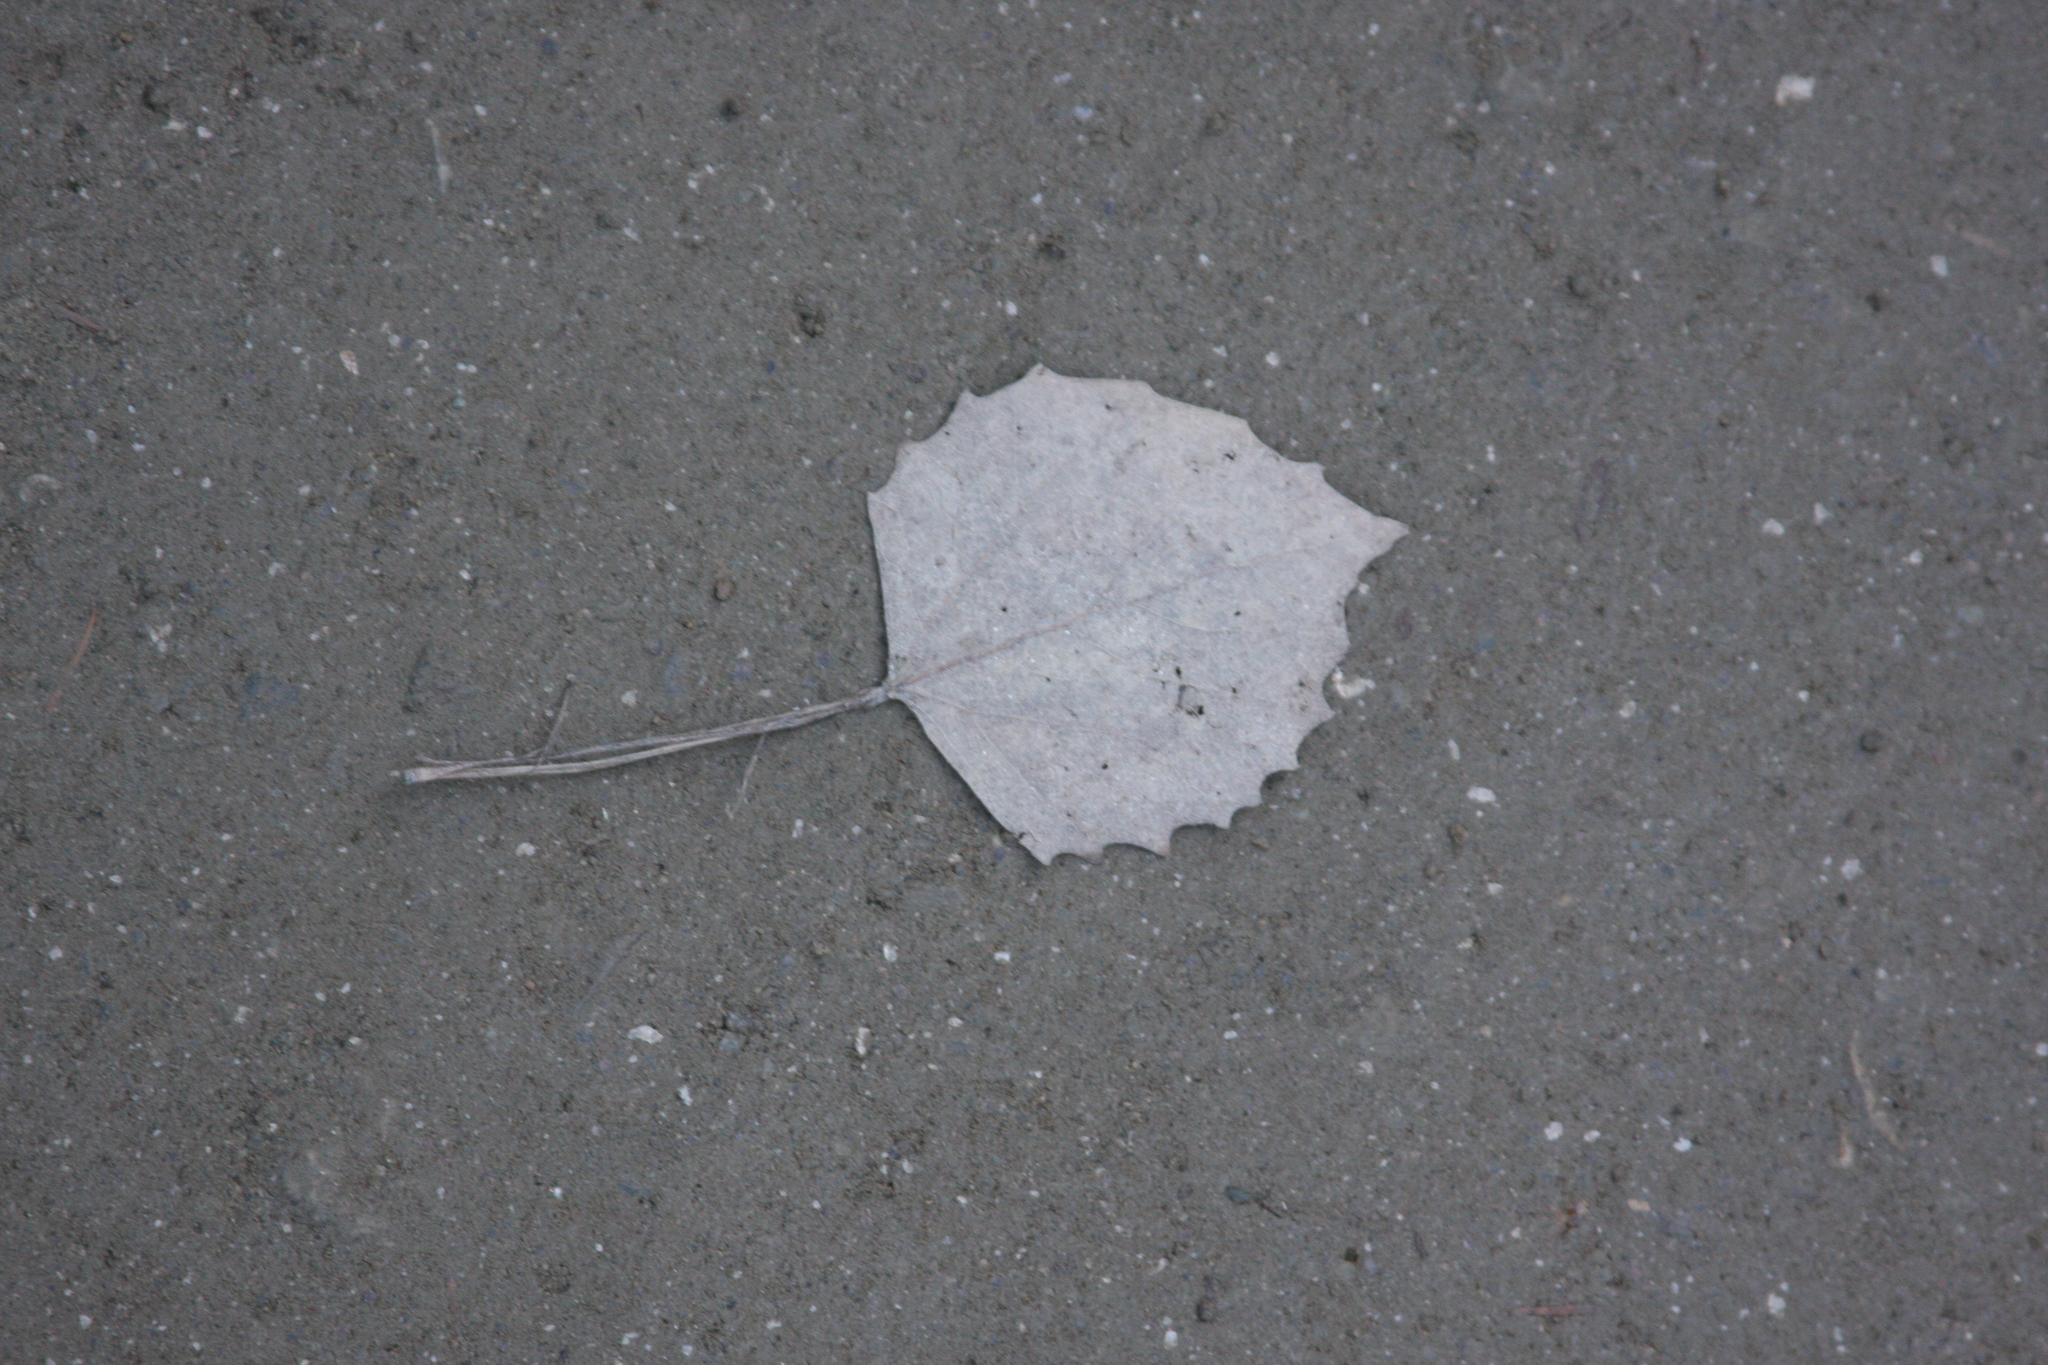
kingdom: Plantae
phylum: Tracheophyta
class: Magnoliopsida
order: Malpighiales
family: Salicaceae
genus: Populus
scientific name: Populus grandidentata
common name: Bigtooth aspen
